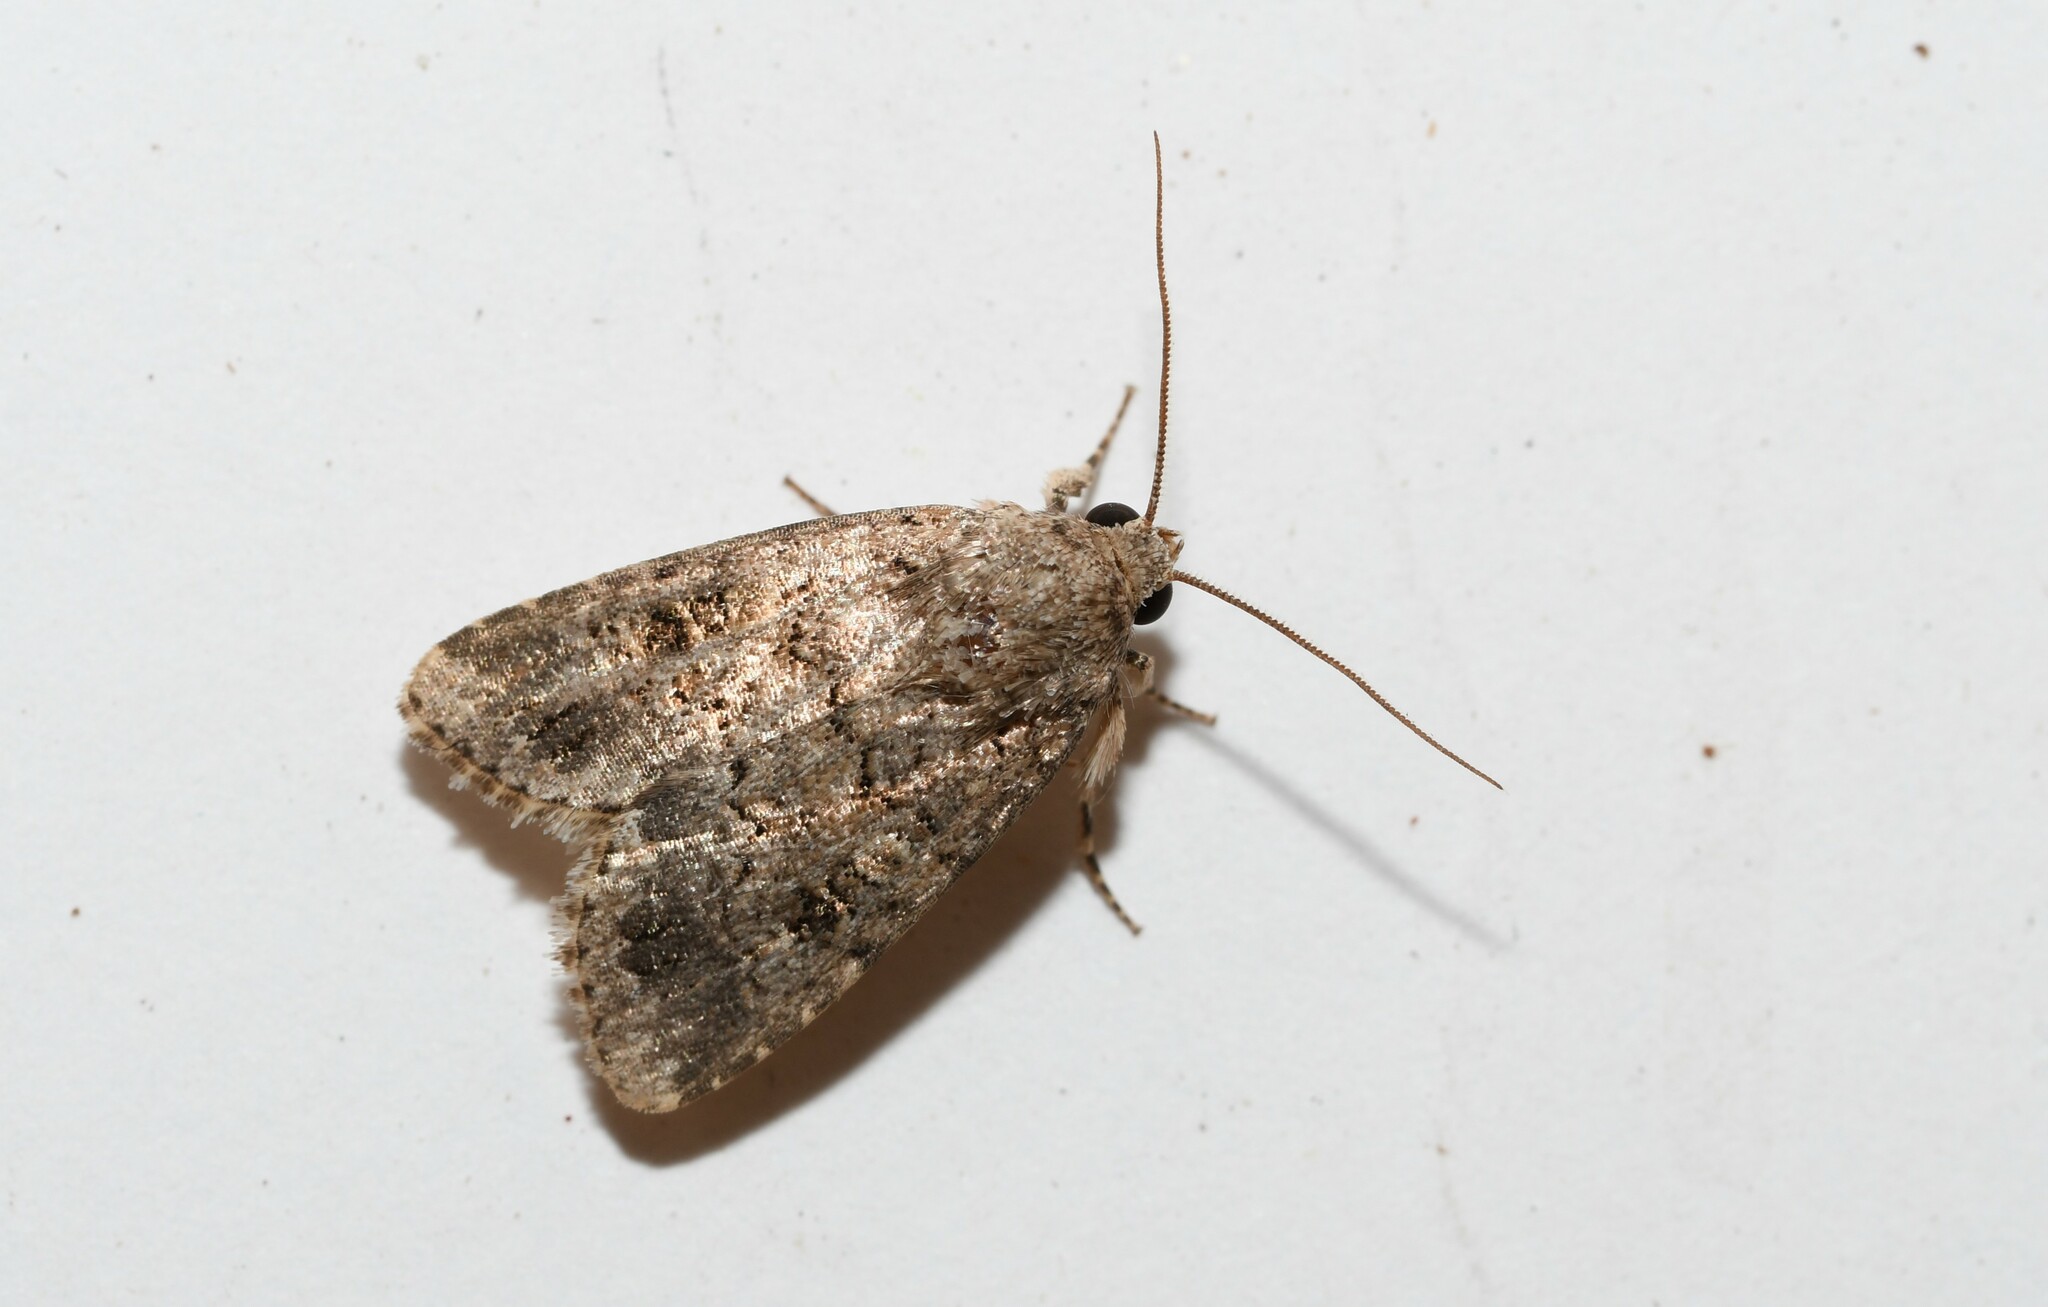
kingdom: Animalia
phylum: Arthropoda
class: Insecta
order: Lepidoptera
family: Noctuidae
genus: Spodoptera
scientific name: Spodoptera cilium
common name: Dark mottled willow
